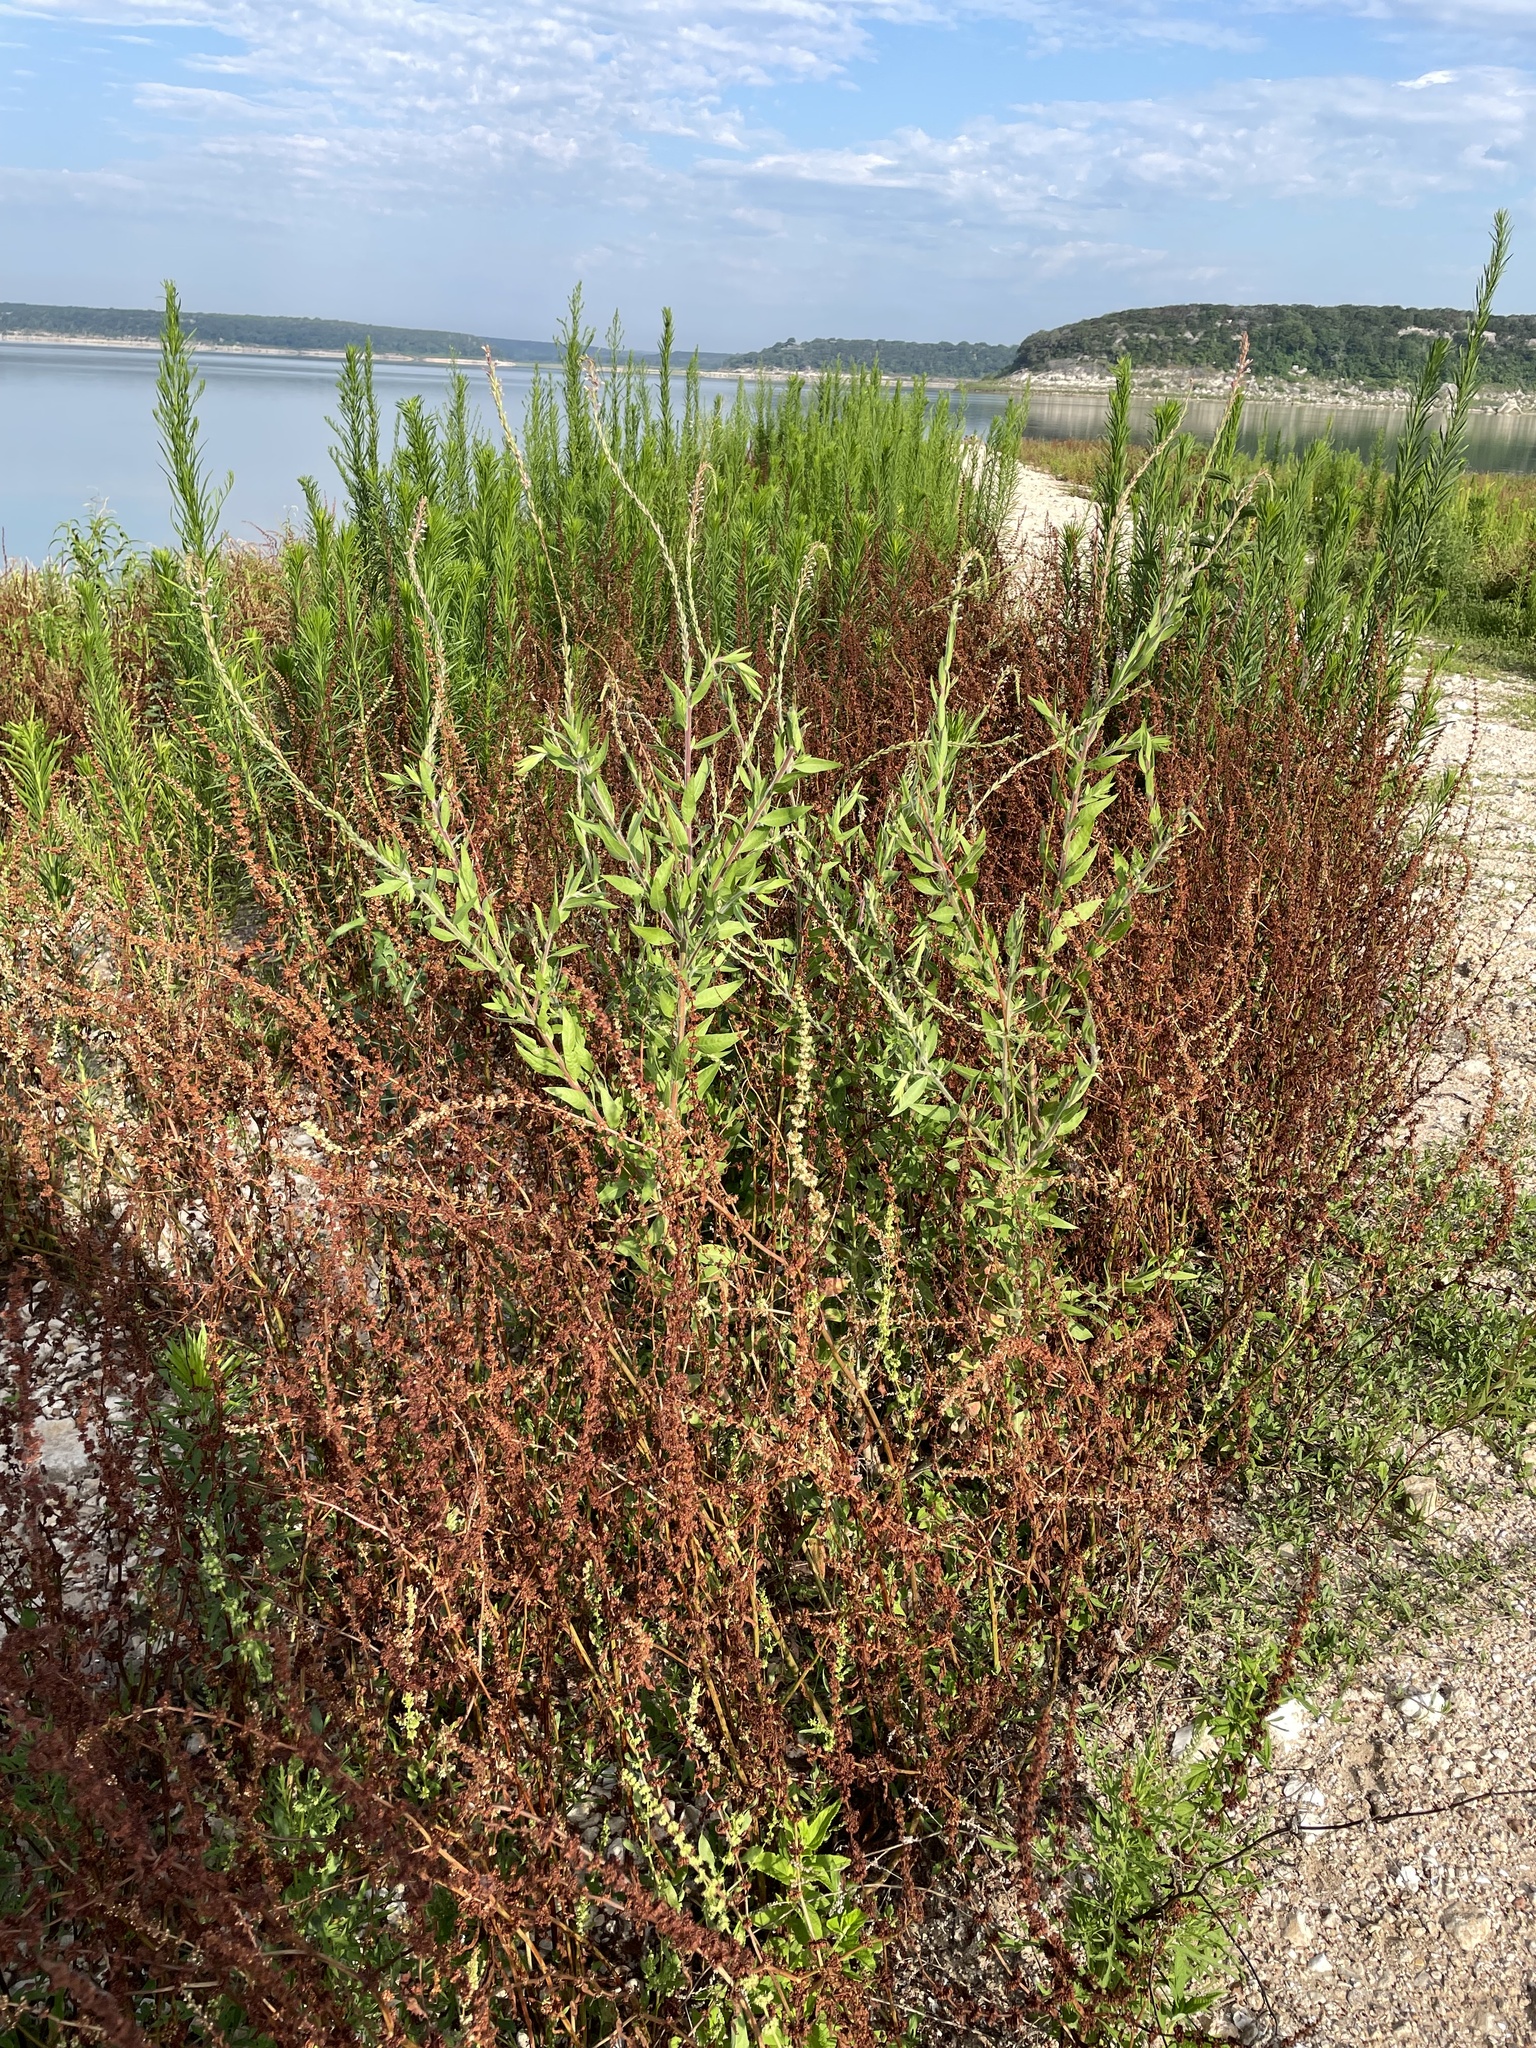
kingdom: Plantae
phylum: Tracheophyta
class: Magnoliopsida
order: Myrtales
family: Onagraceae
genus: Oenothera
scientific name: Oenothera curtiflora
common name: Velvetweed
